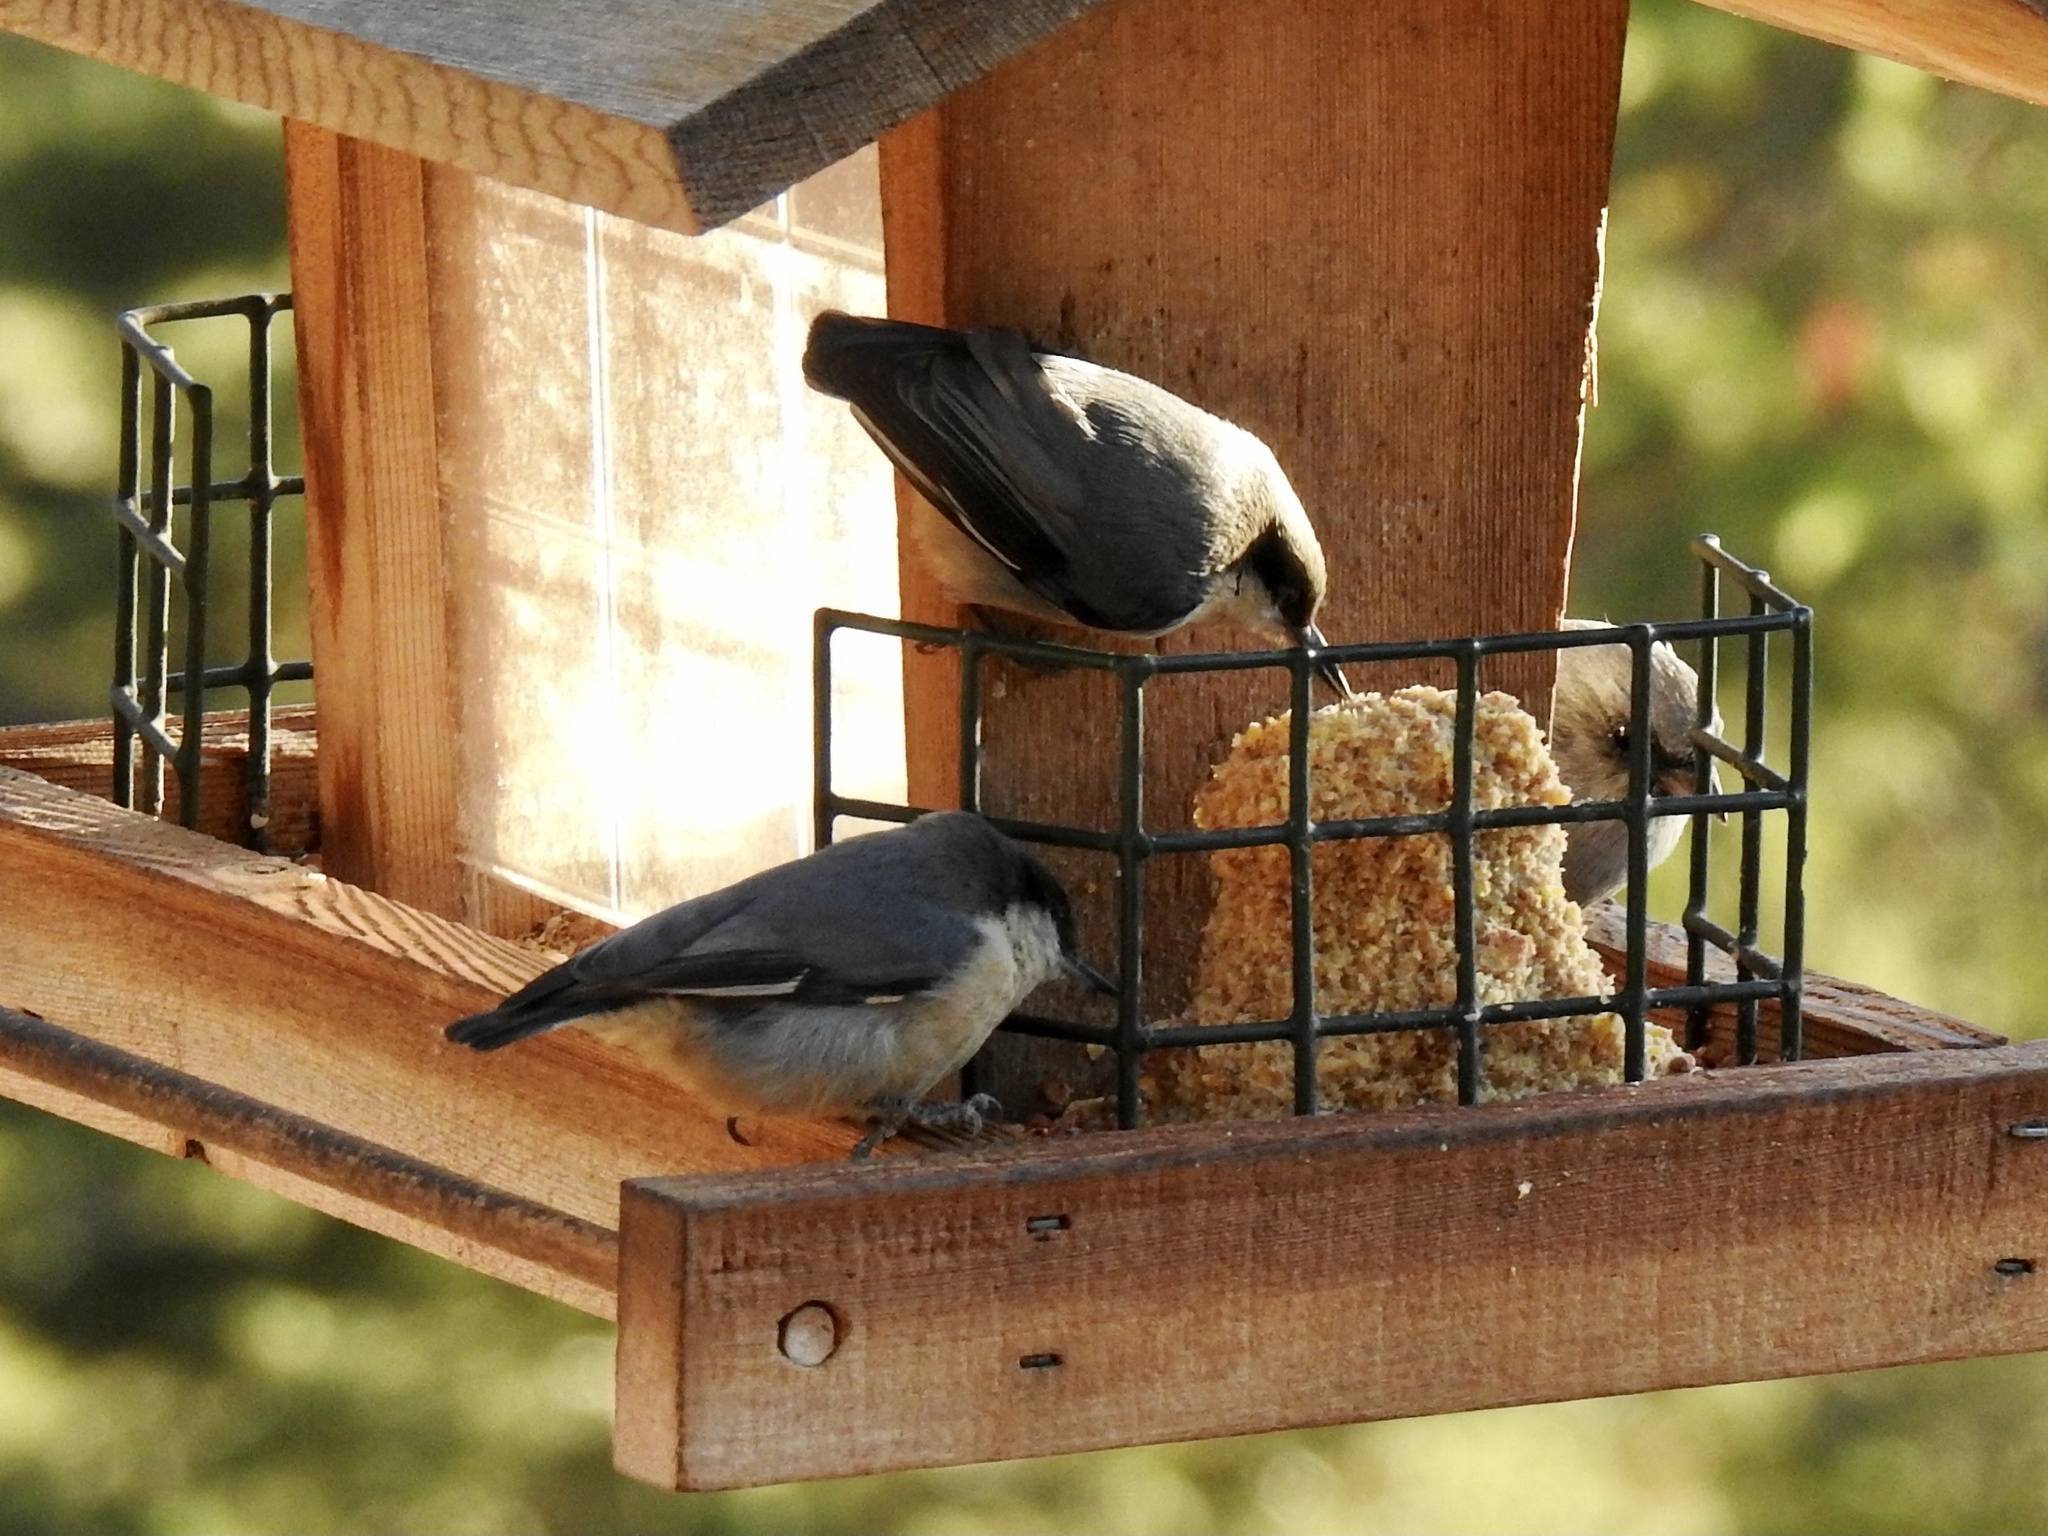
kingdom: Animalia
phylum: Chordata
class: Aves
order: Passeriformes
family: Sittidae
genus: Sitta
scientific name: Sitta pygmaea
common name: Pygmy nuthatch
